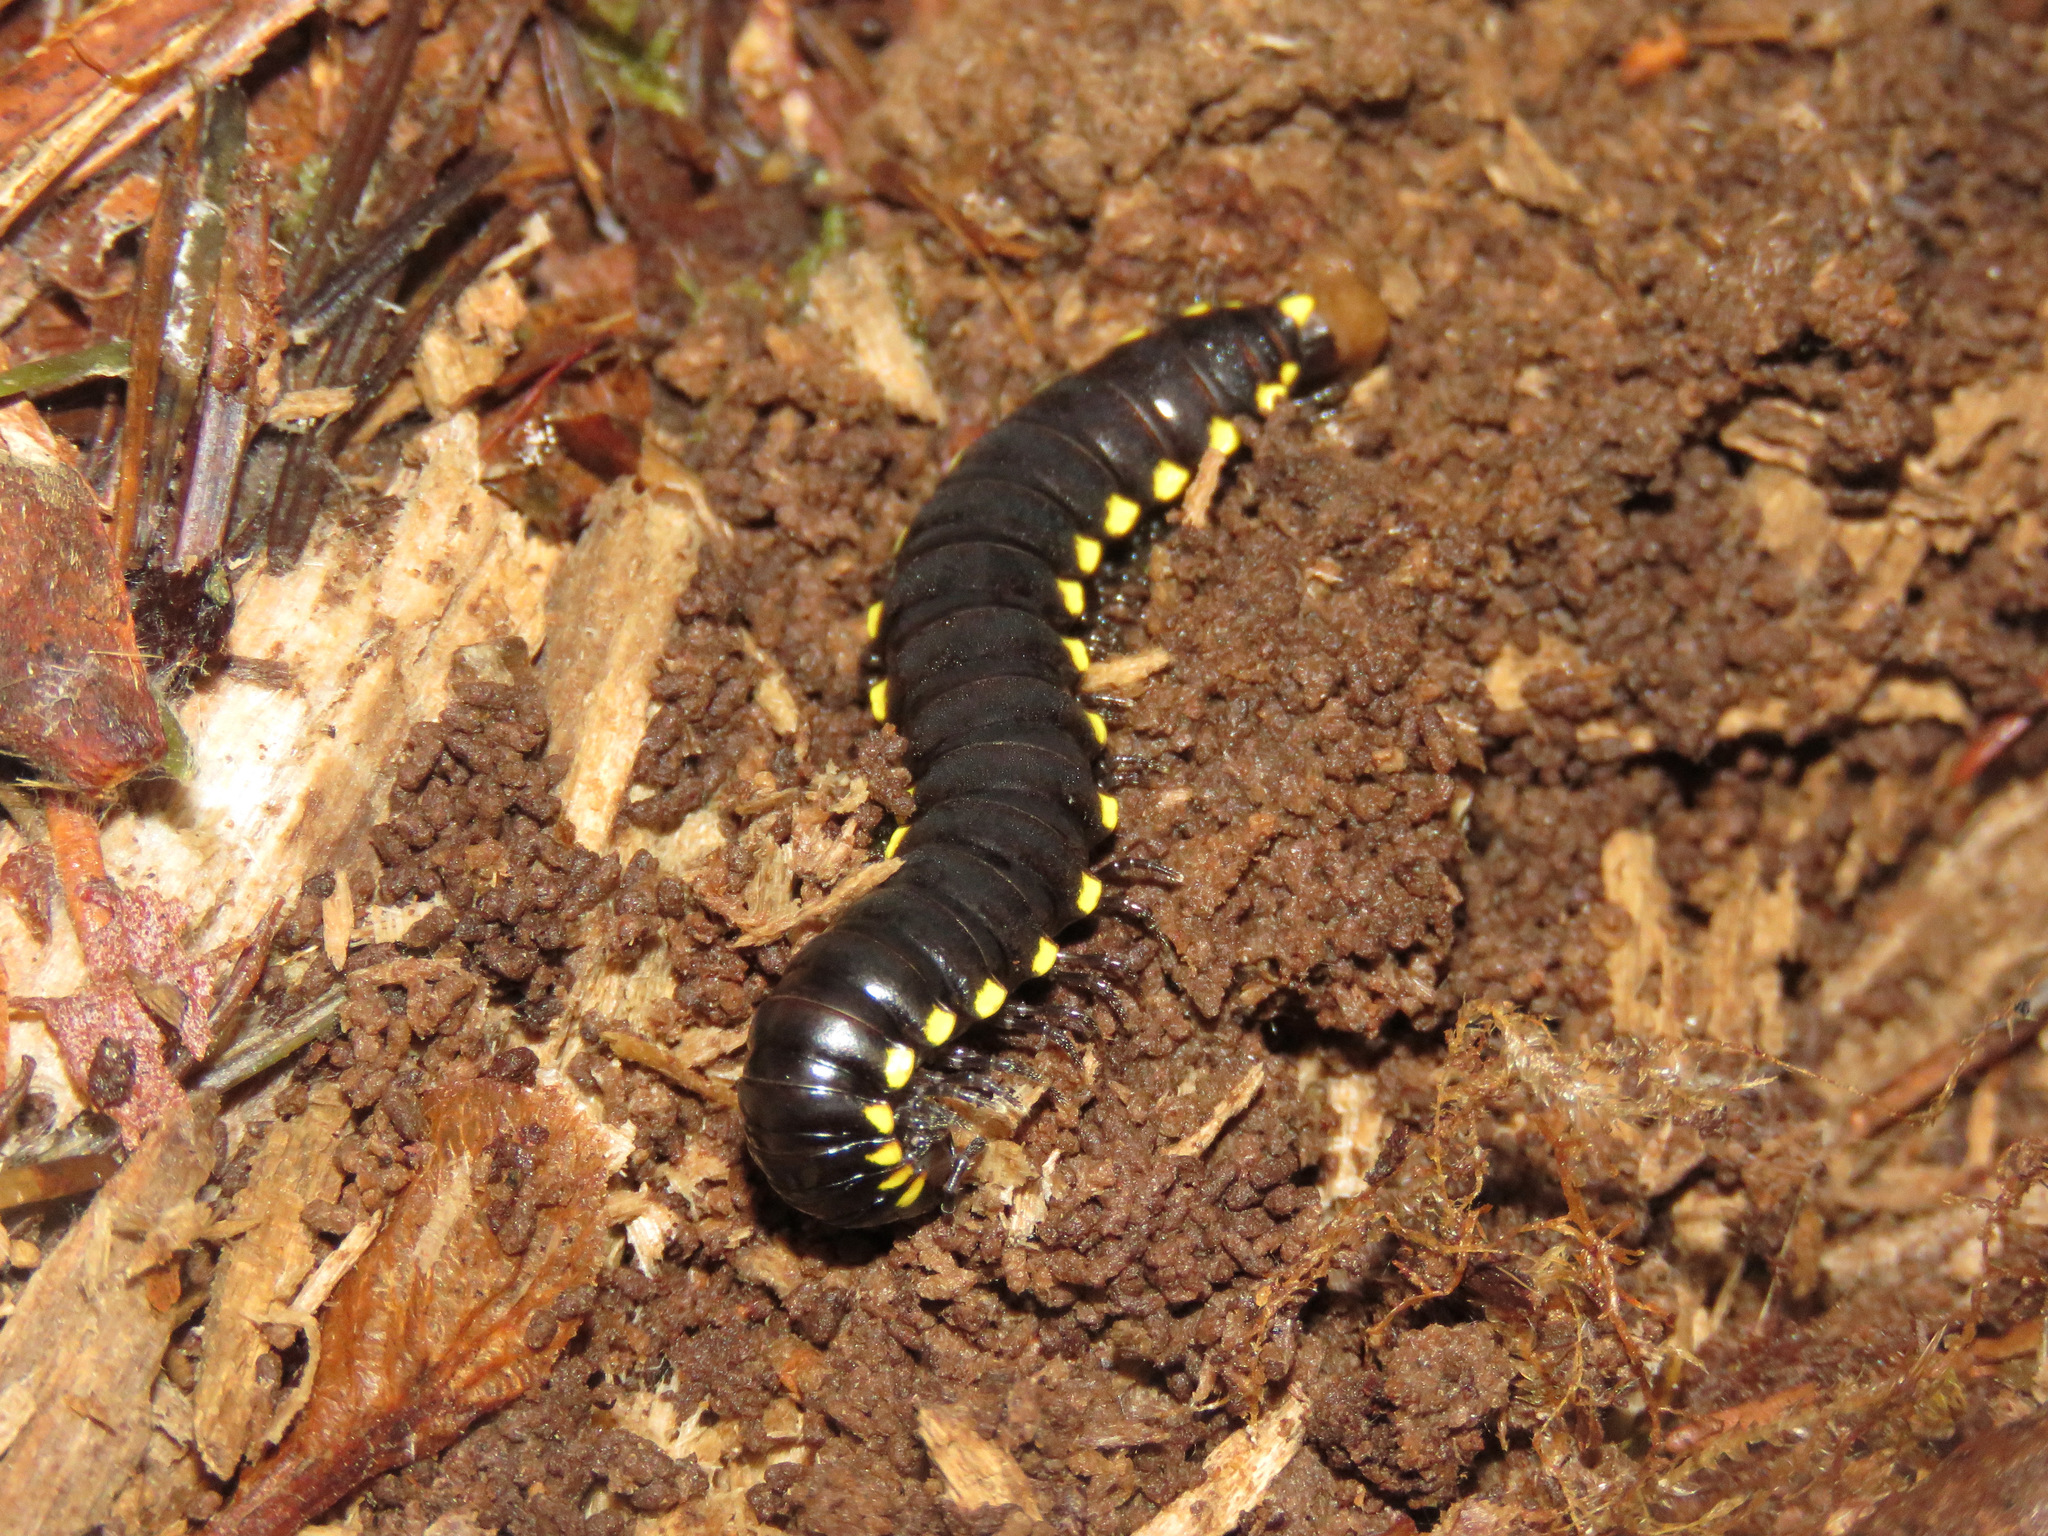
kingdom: Animalia
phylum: Arthropoda
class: Diplopoda
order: Polydesmida
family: Xystodesmidae
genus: Harpaphe
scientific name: Harpaphe haydeniana
